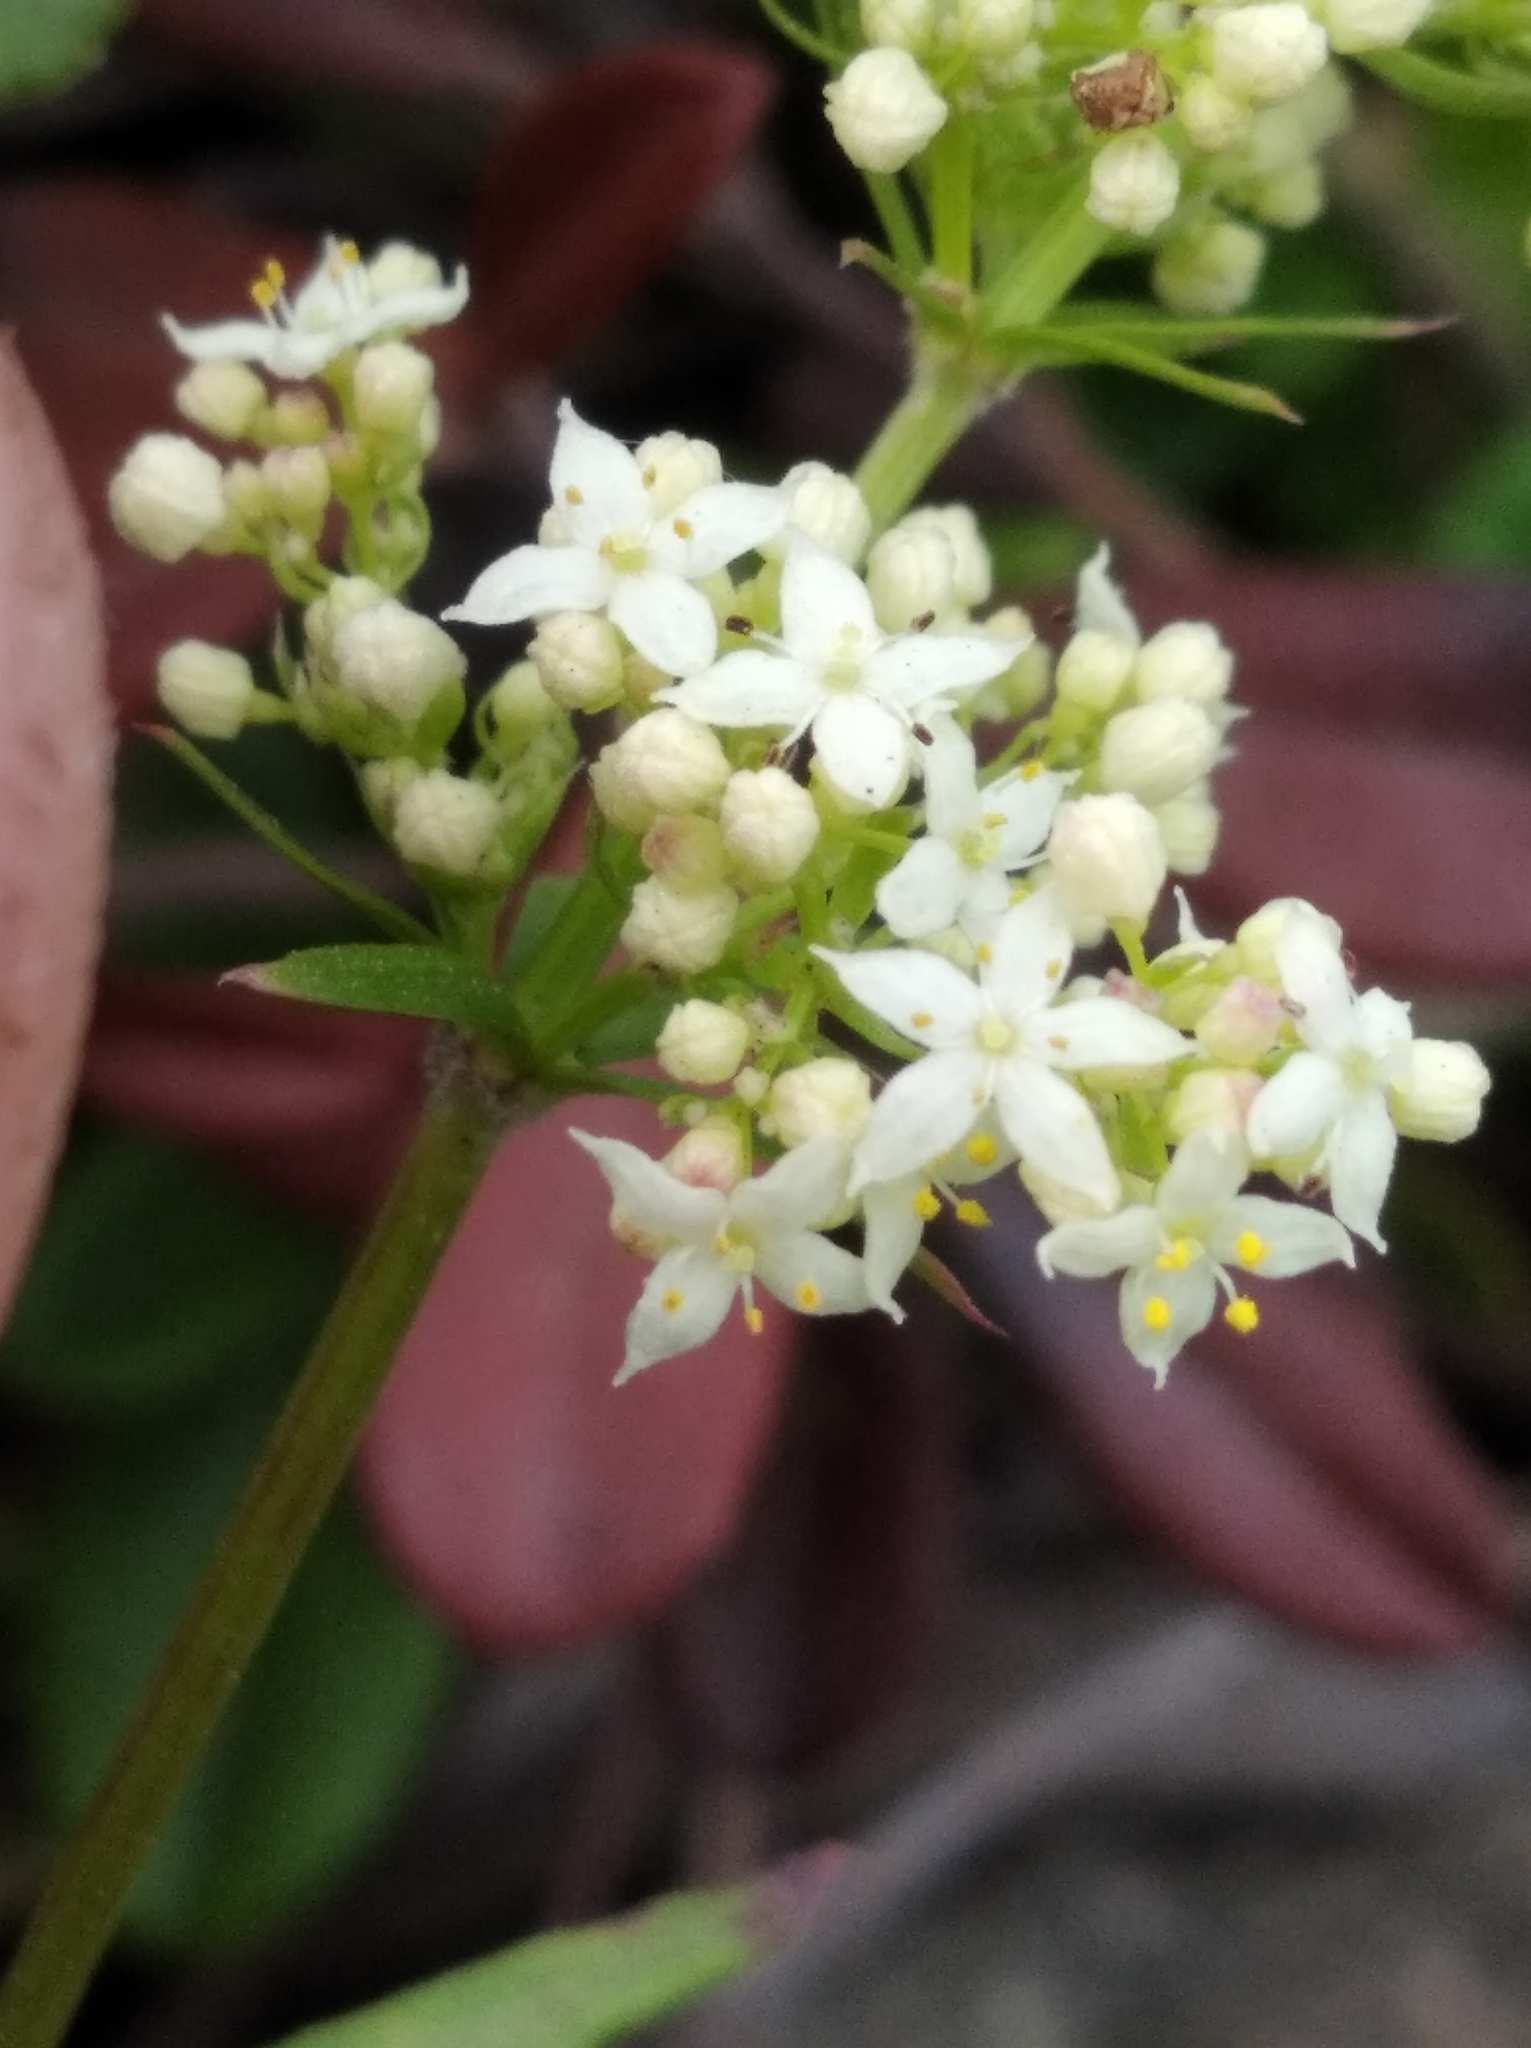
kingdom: Plantae
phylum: Tracheophyta
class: Magnoliopsida
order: Gentianales
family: Rubiaceae
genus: Galium
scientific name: Galium mollugo
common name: Hedge bedstraw
